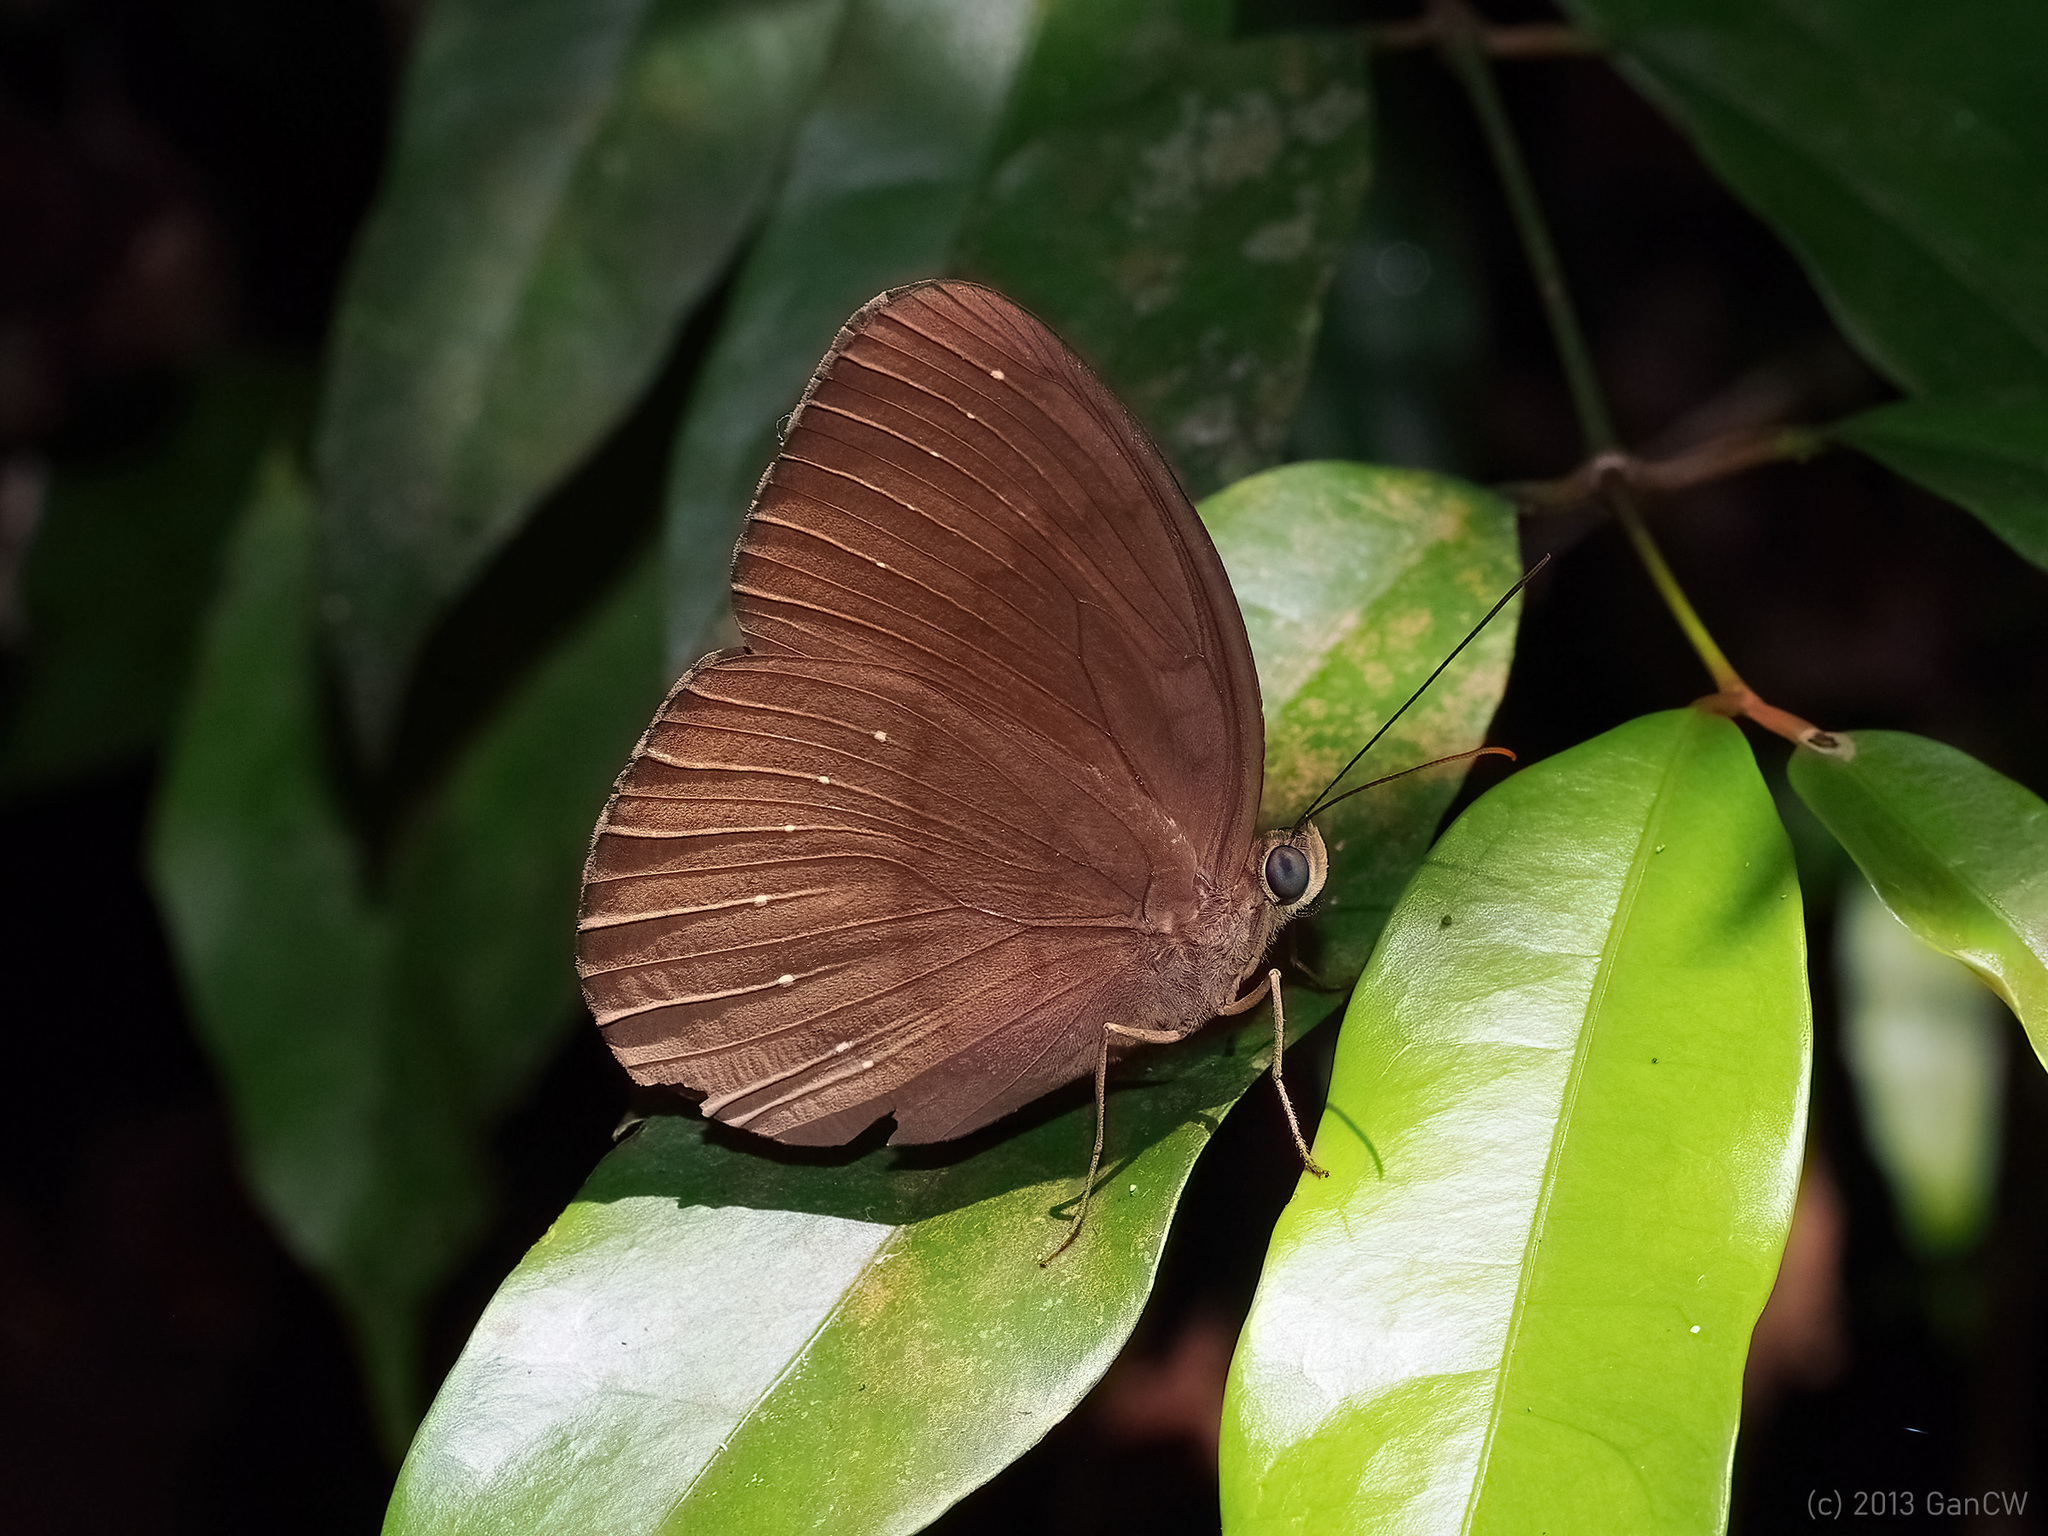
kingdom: Animalia
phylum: Arthropoda
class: Insecta
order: Lepidoptera
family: Nymphalidae
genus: Faunis
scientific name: Faunis canens
